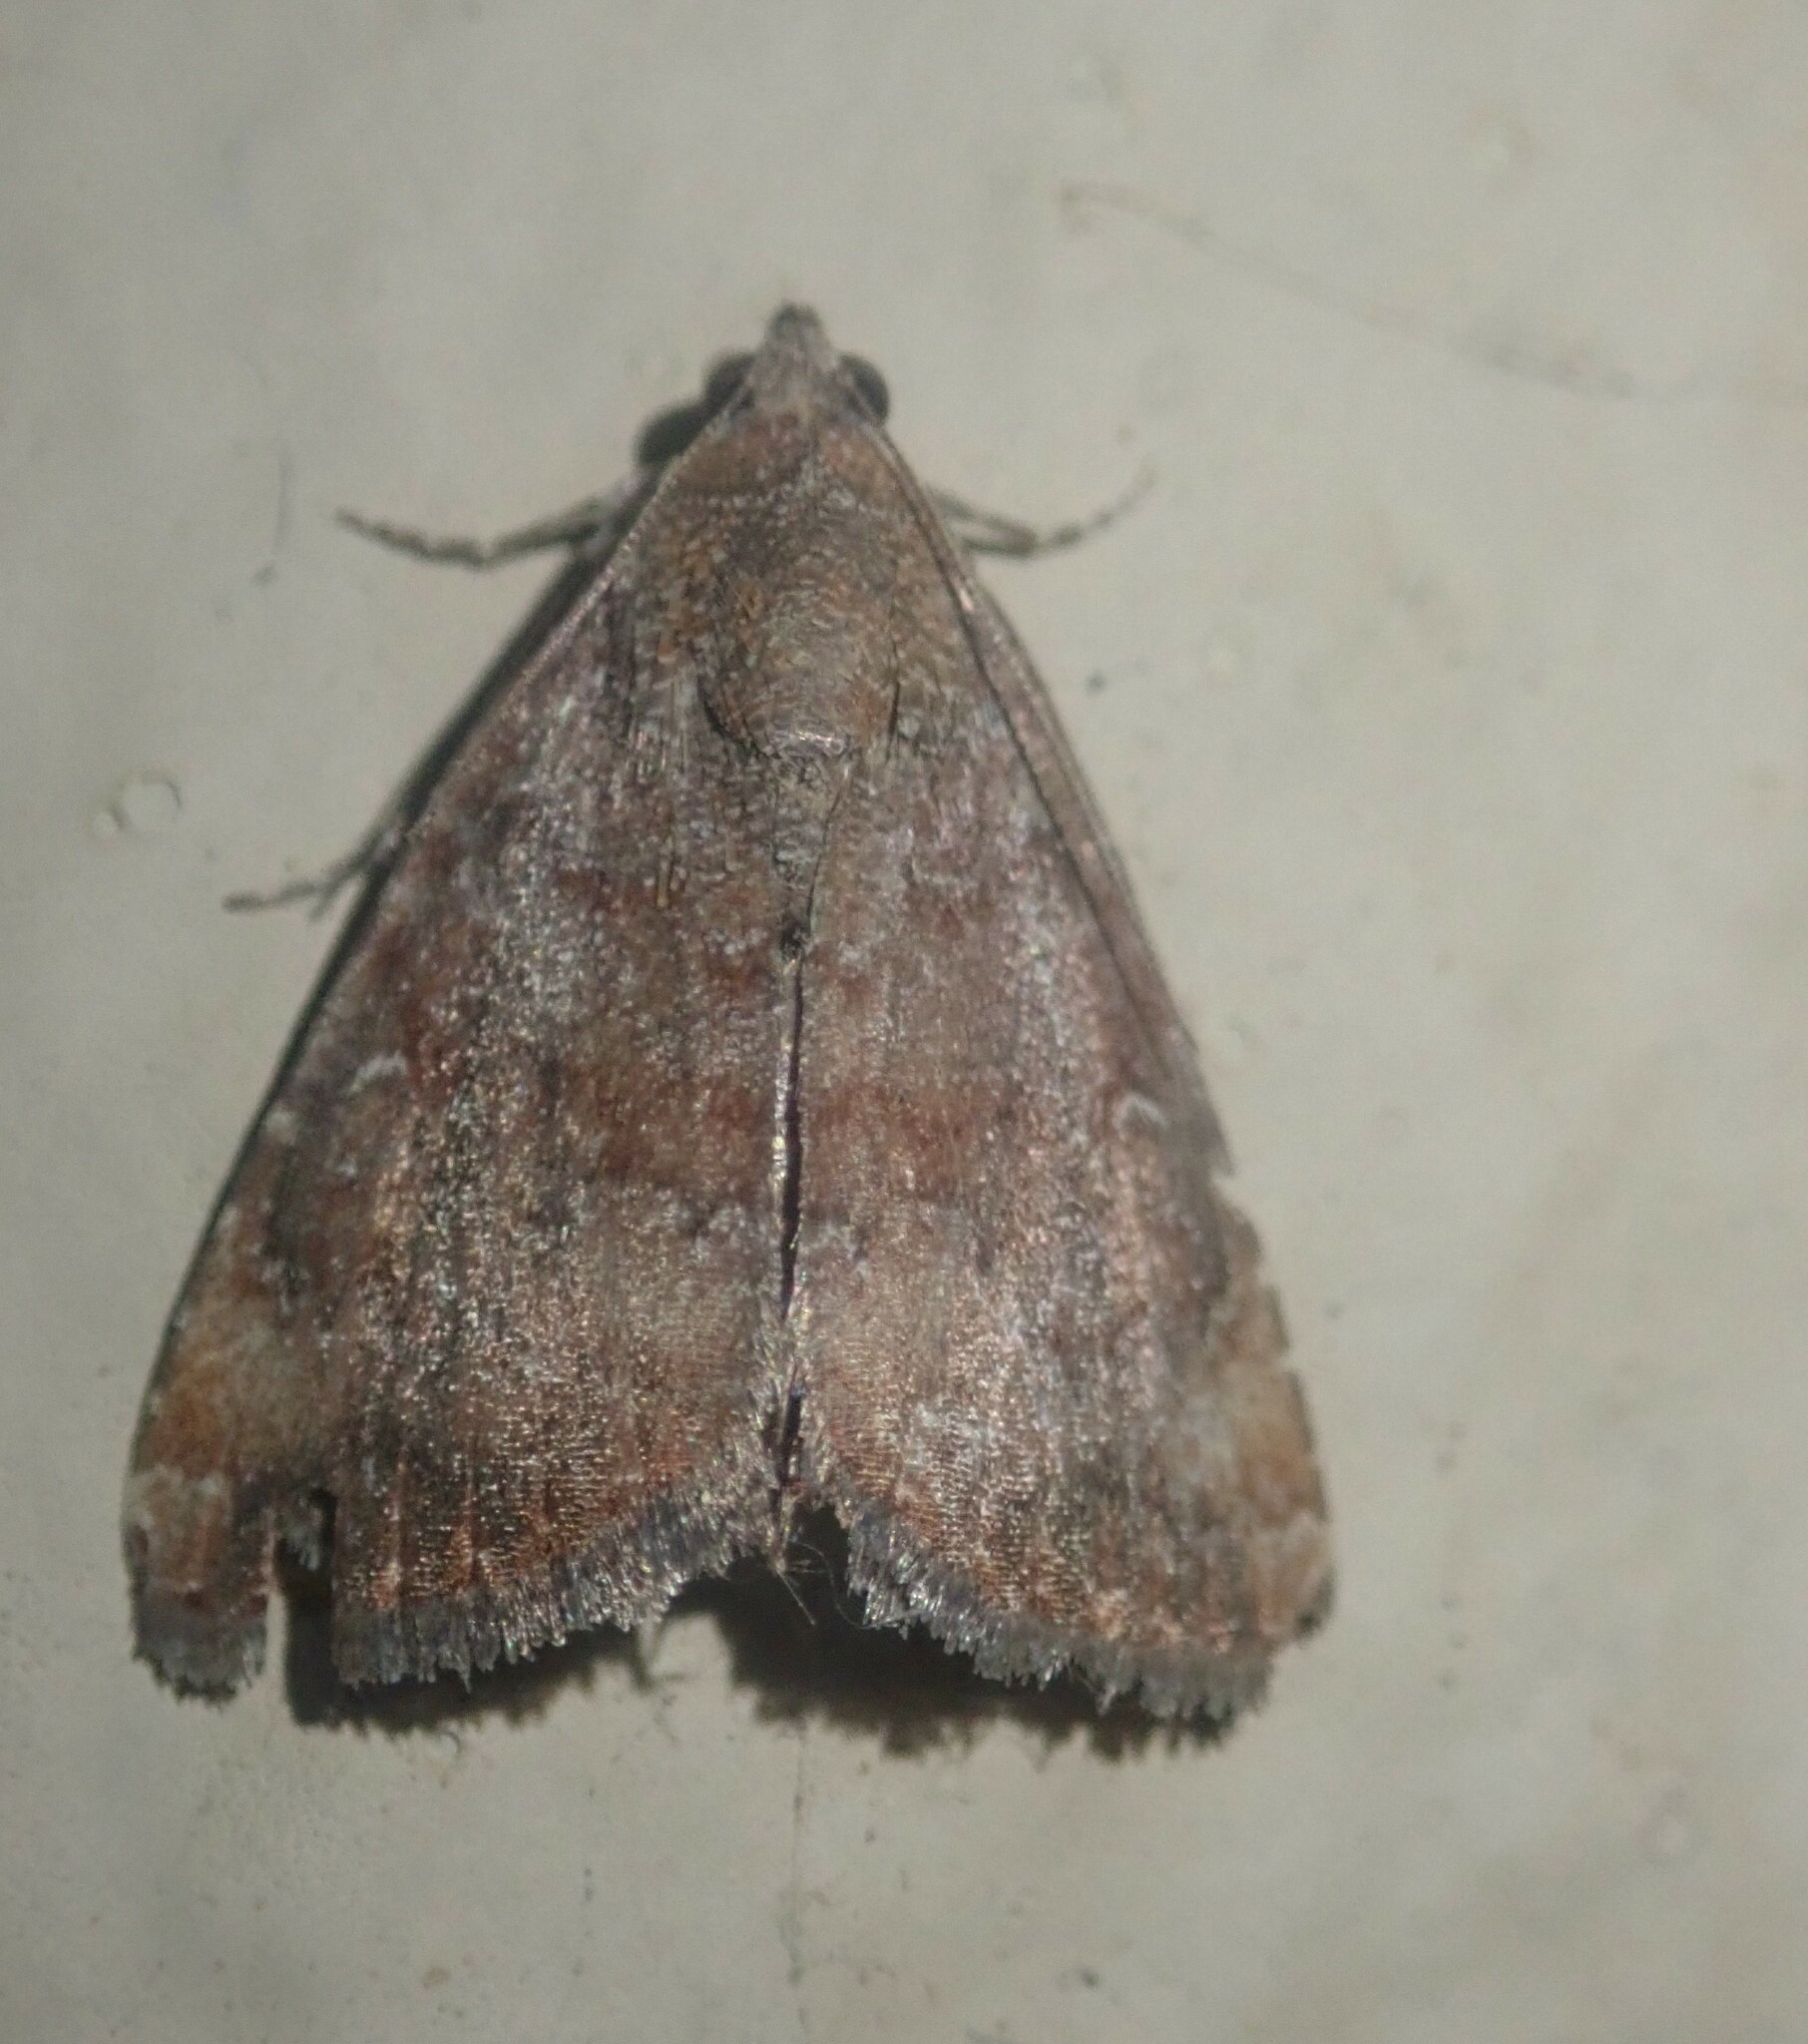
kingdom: Animalia
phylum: Arthropoda
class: Insecta
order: Lepidoptera
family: Noctuidae
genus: Amyna
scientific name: Amyna axis
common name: Cutworm
